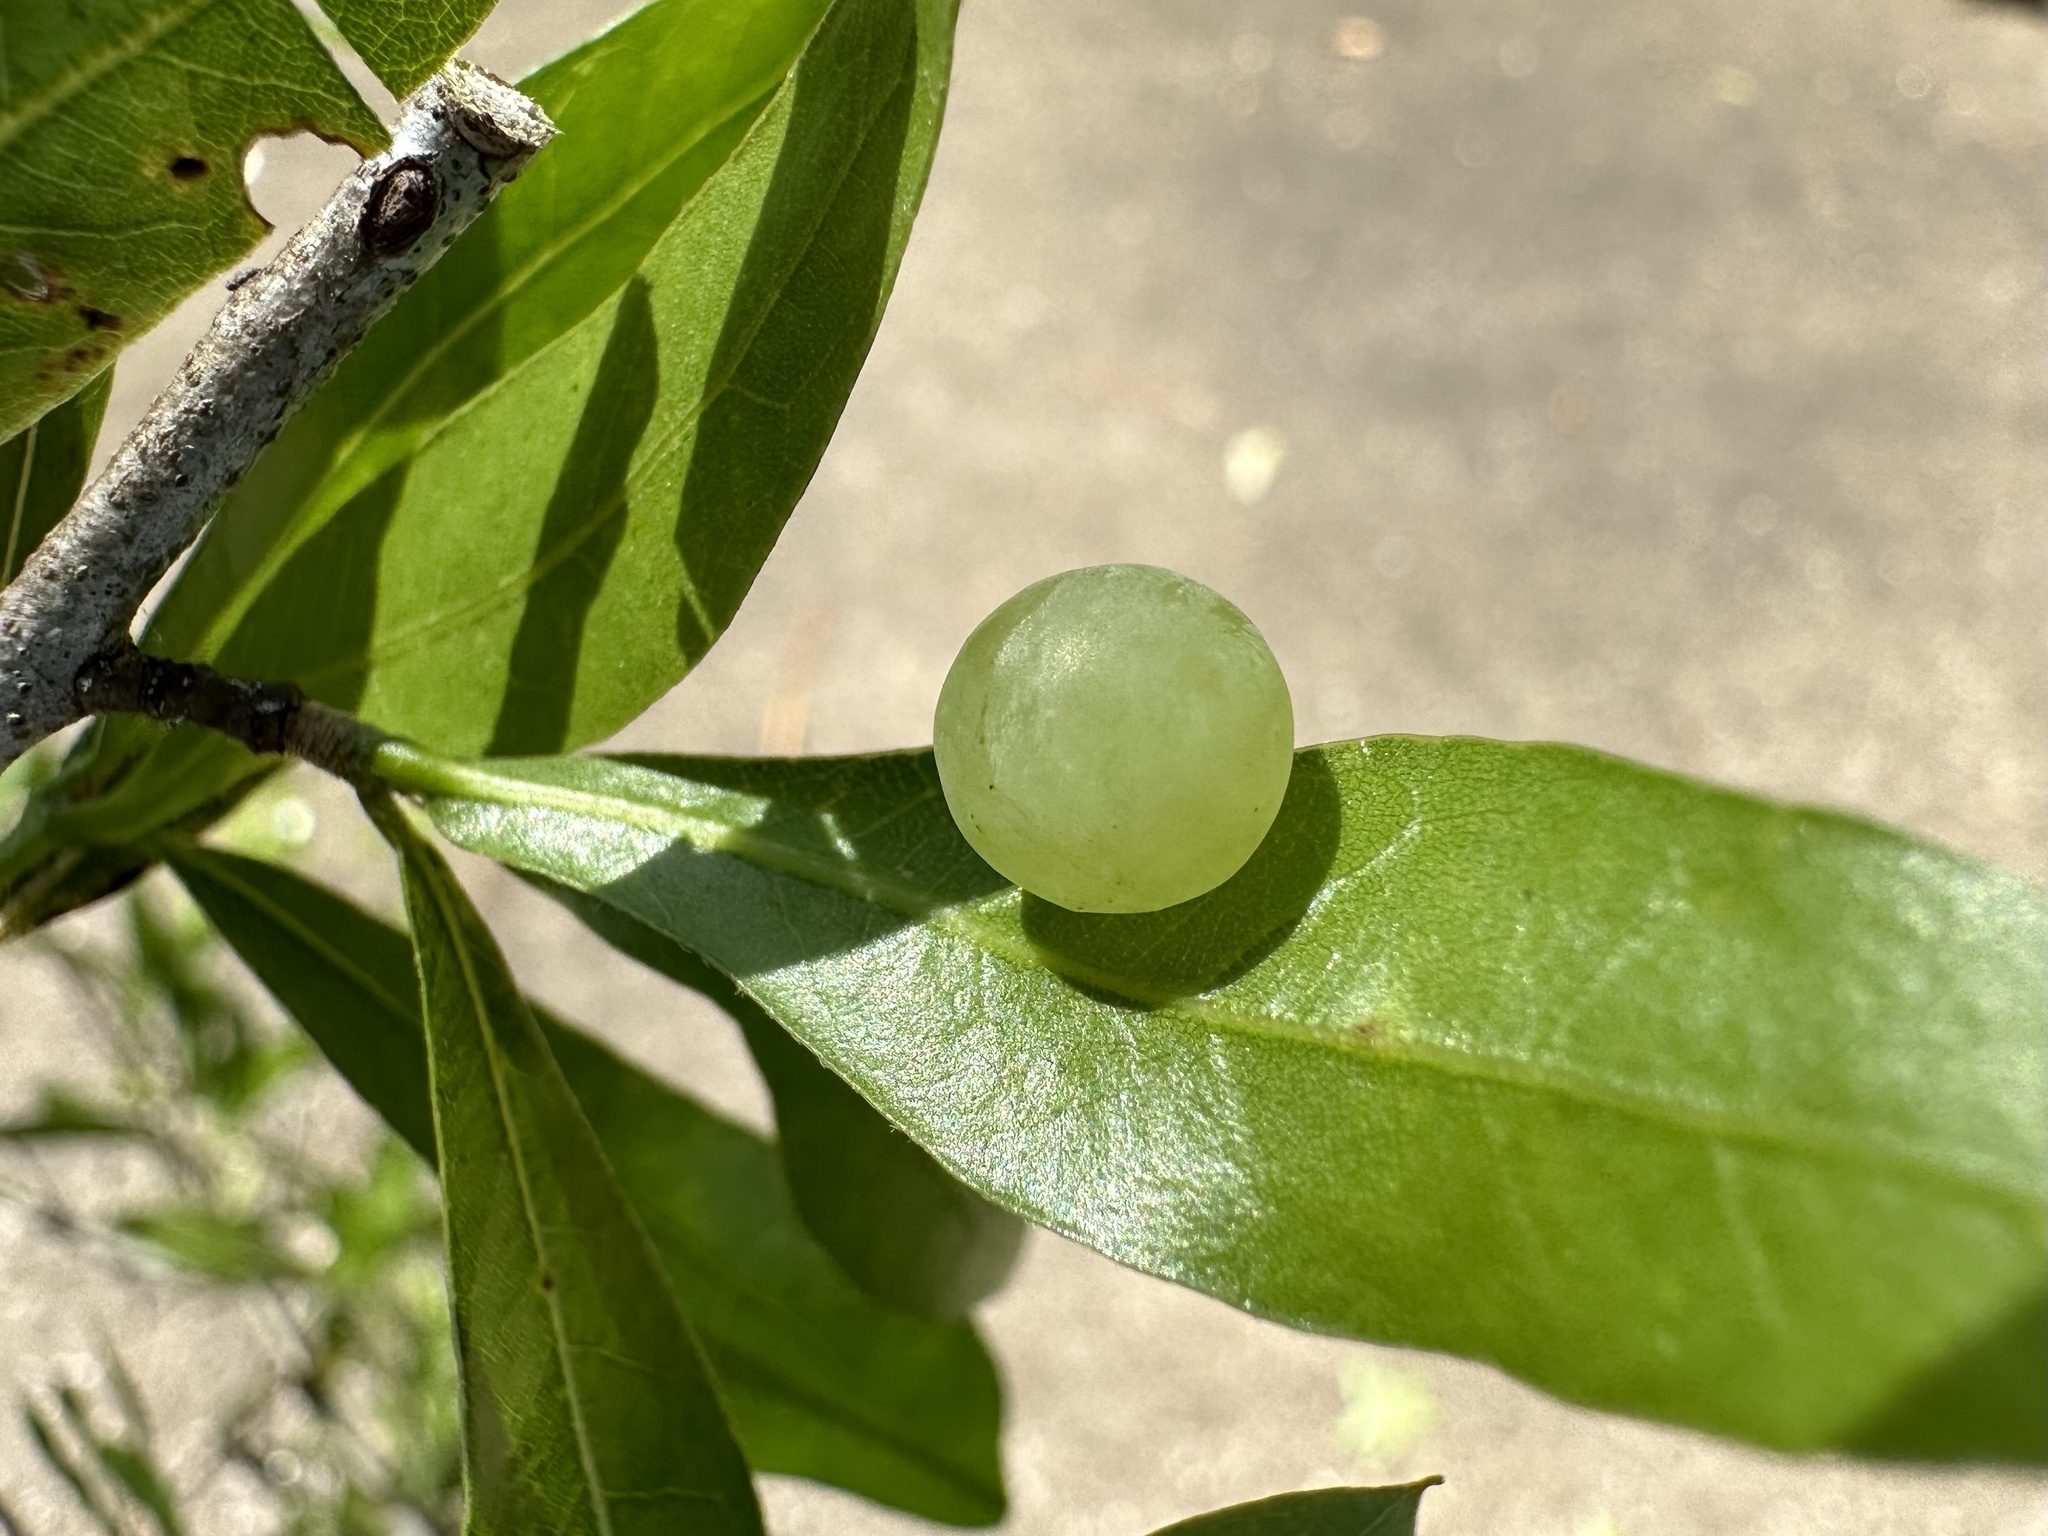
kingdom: Animalia
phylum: Arthropoda
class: Insecta
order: Hymenoptera
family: Cynipidae
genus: Amphibolips
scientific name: Amphibolips
